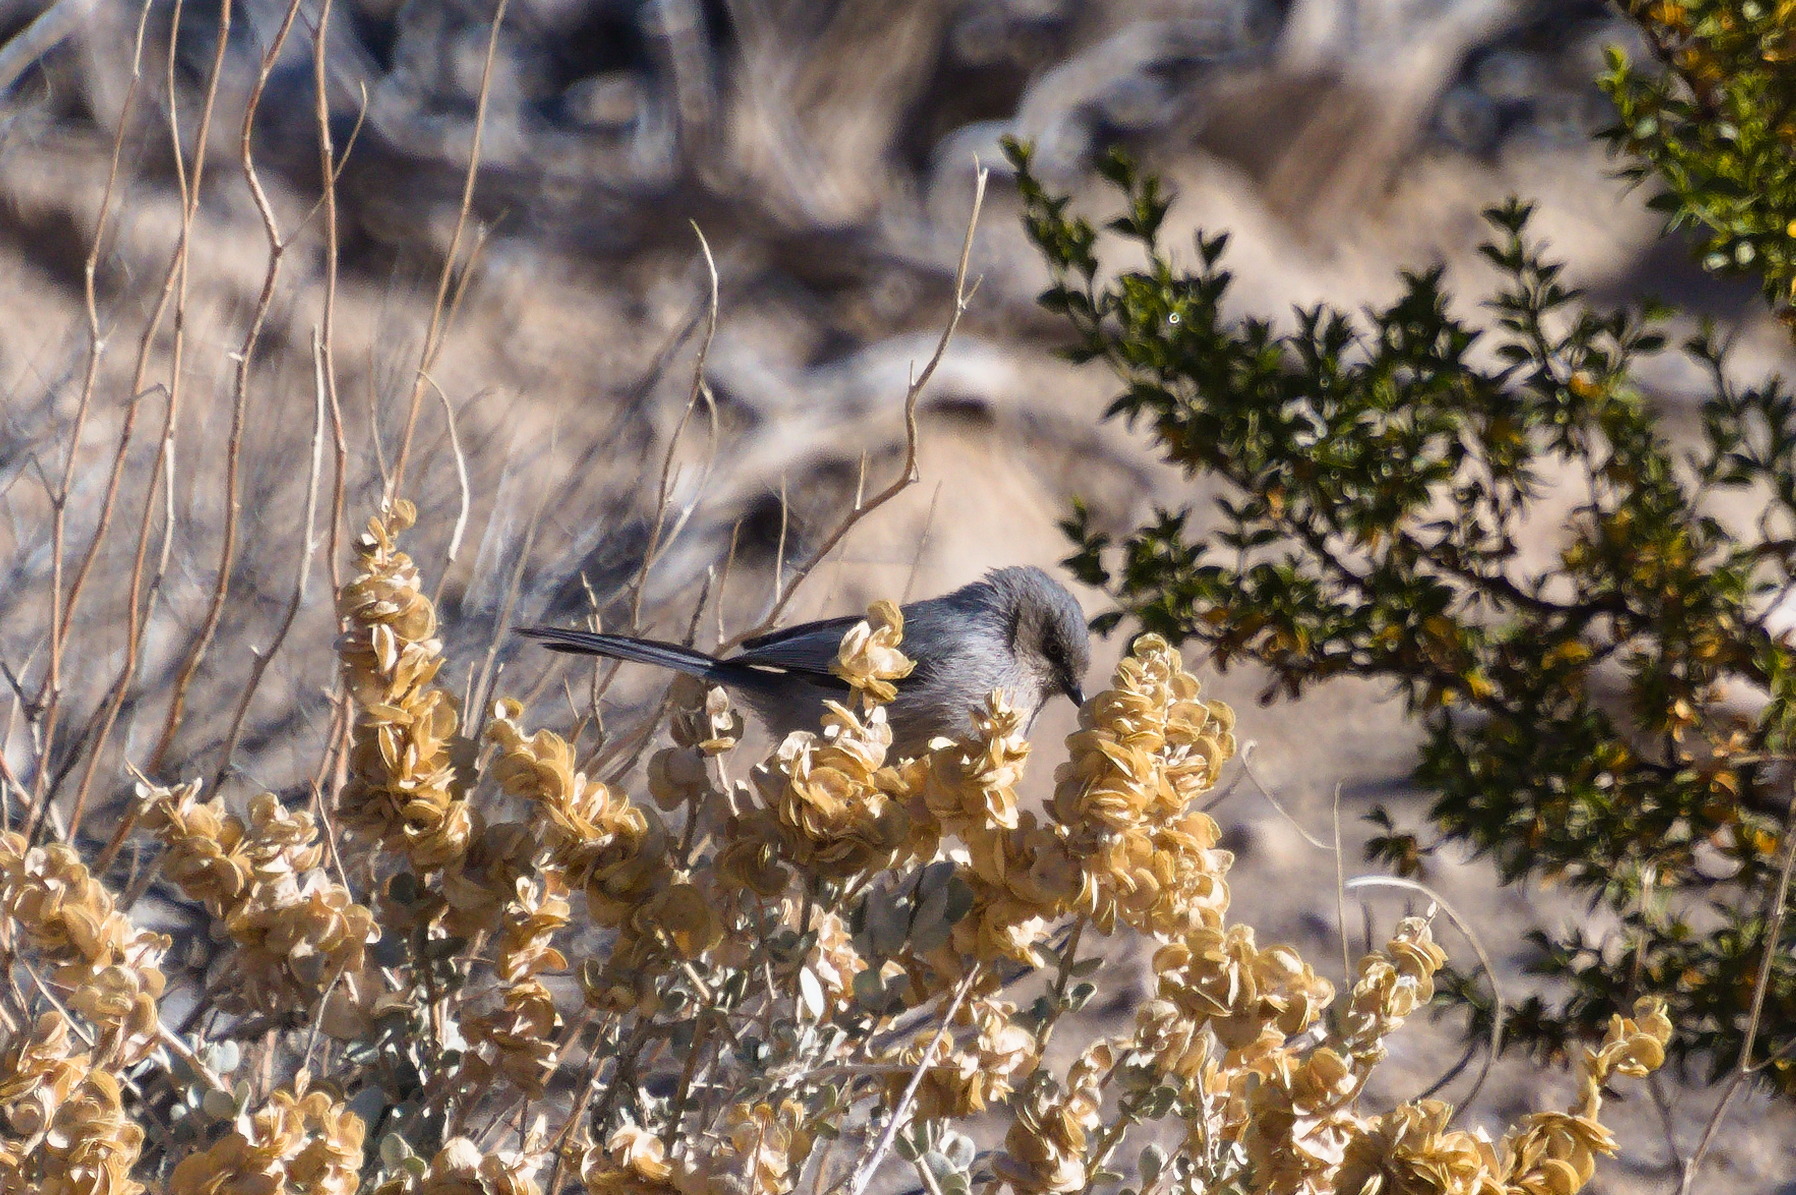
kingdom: Animalia
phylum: Chordata
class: Aves
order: Passeriformes
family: Aegithalidae
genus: Psaltriparus
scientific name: Psaltriparus minimus
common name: American bushtit
